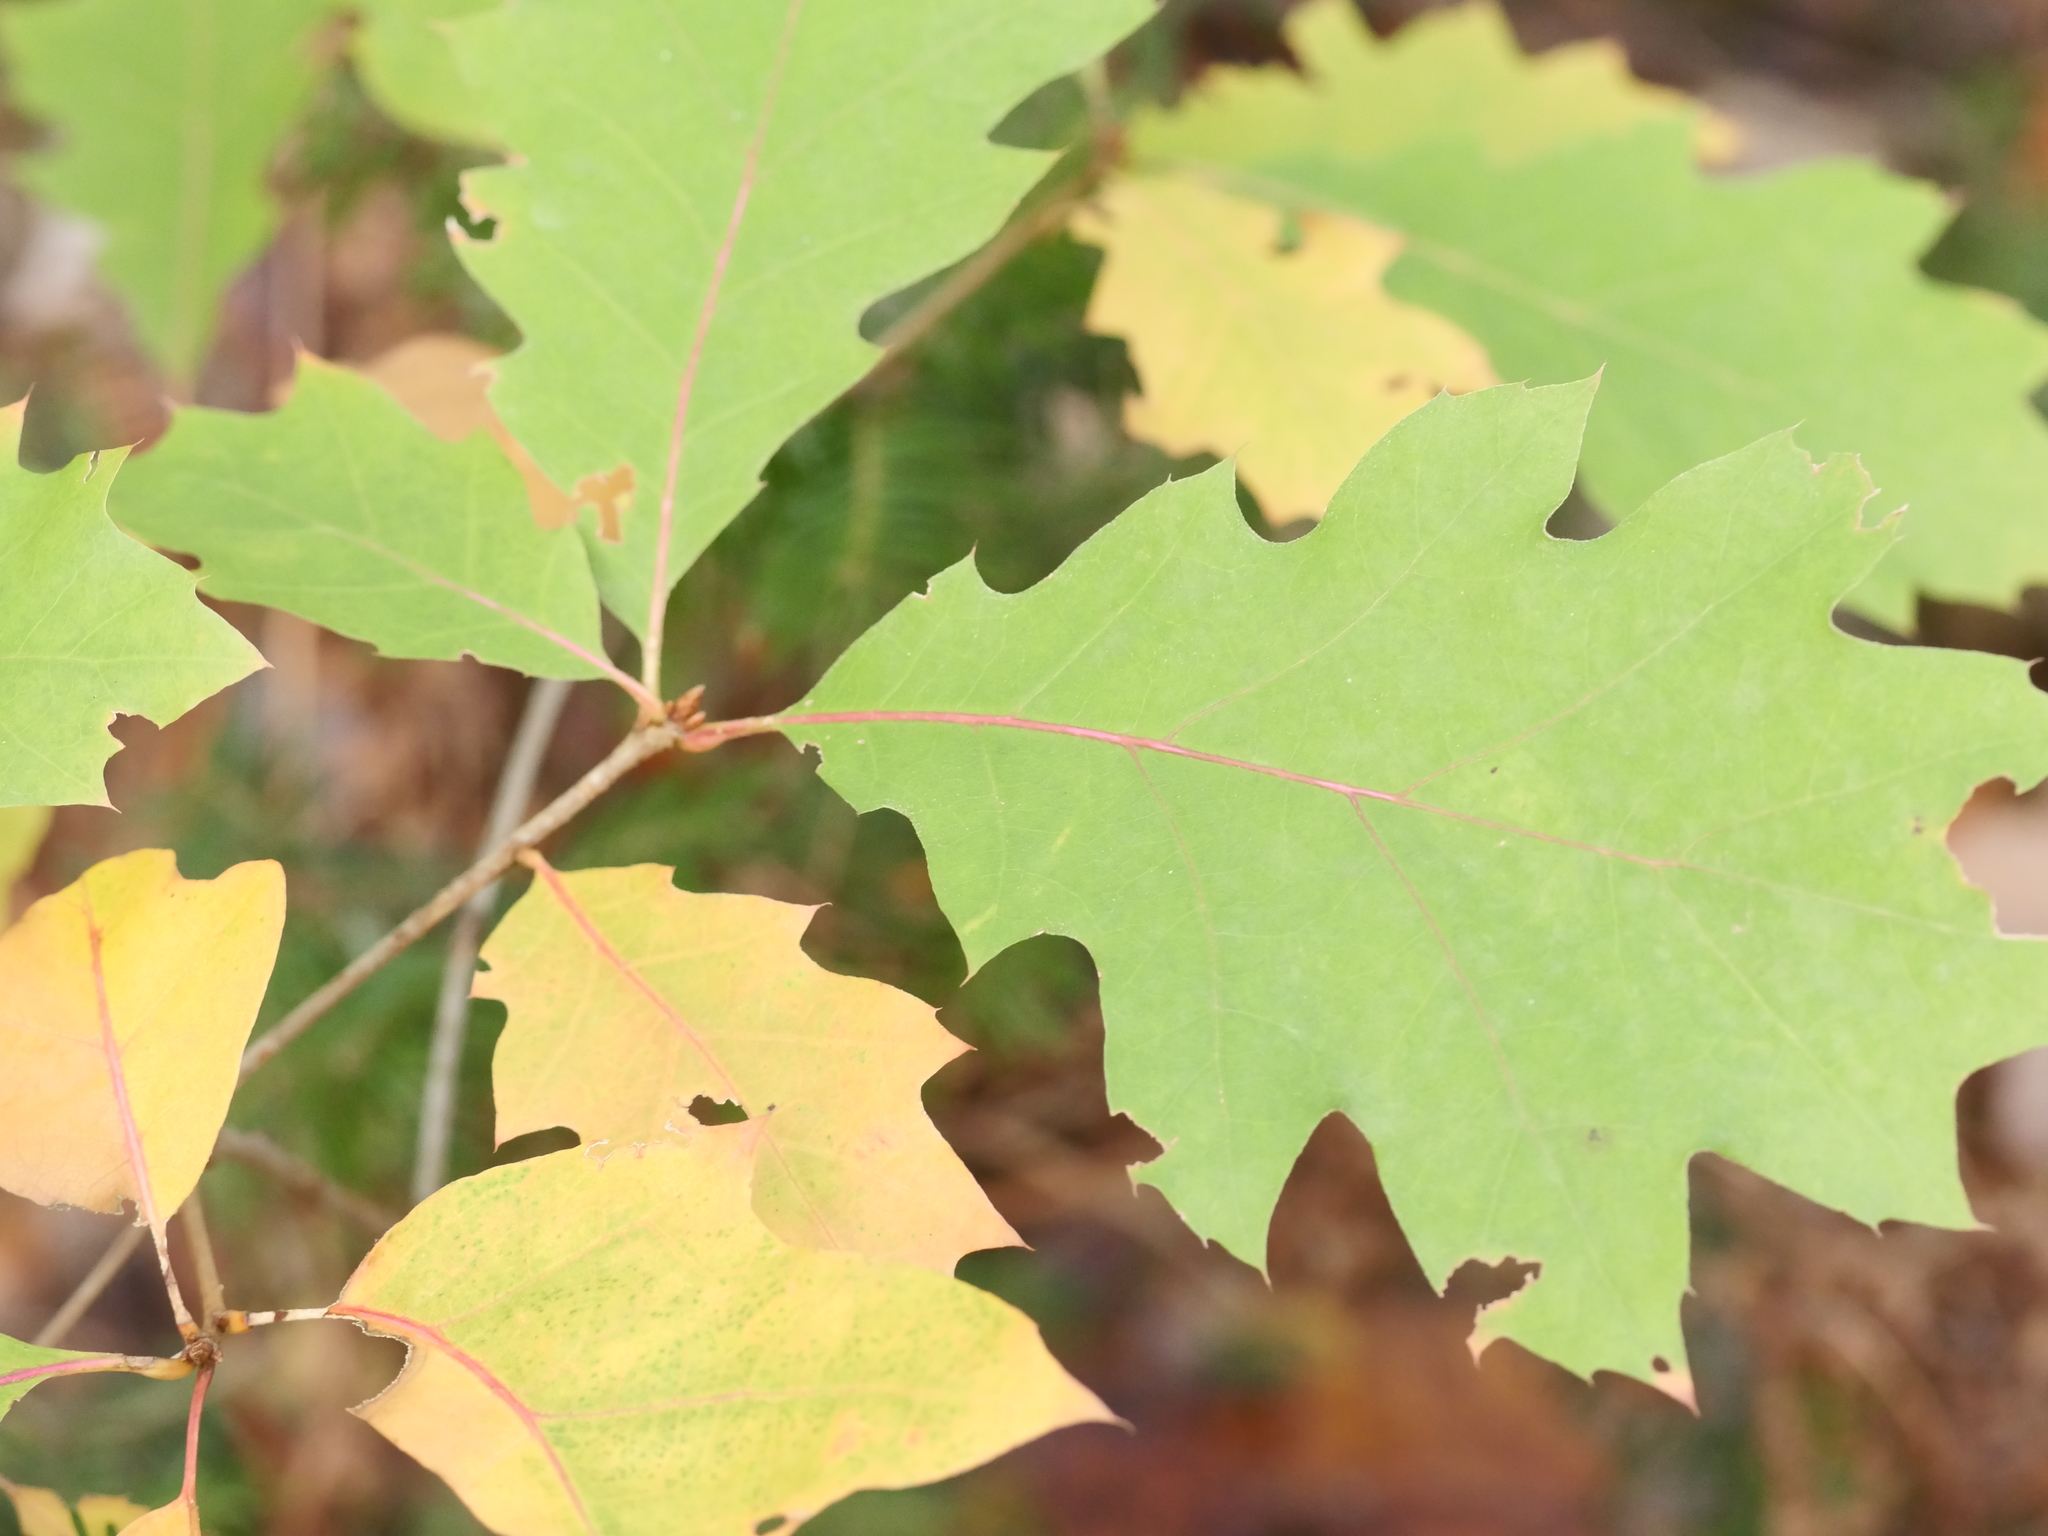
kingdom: Plantae
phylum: Tracheophyta
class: Magnoliopsida
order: Fagales
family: Fagaceae
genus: Quercus
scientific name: Quercus rubra
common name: Red oak
